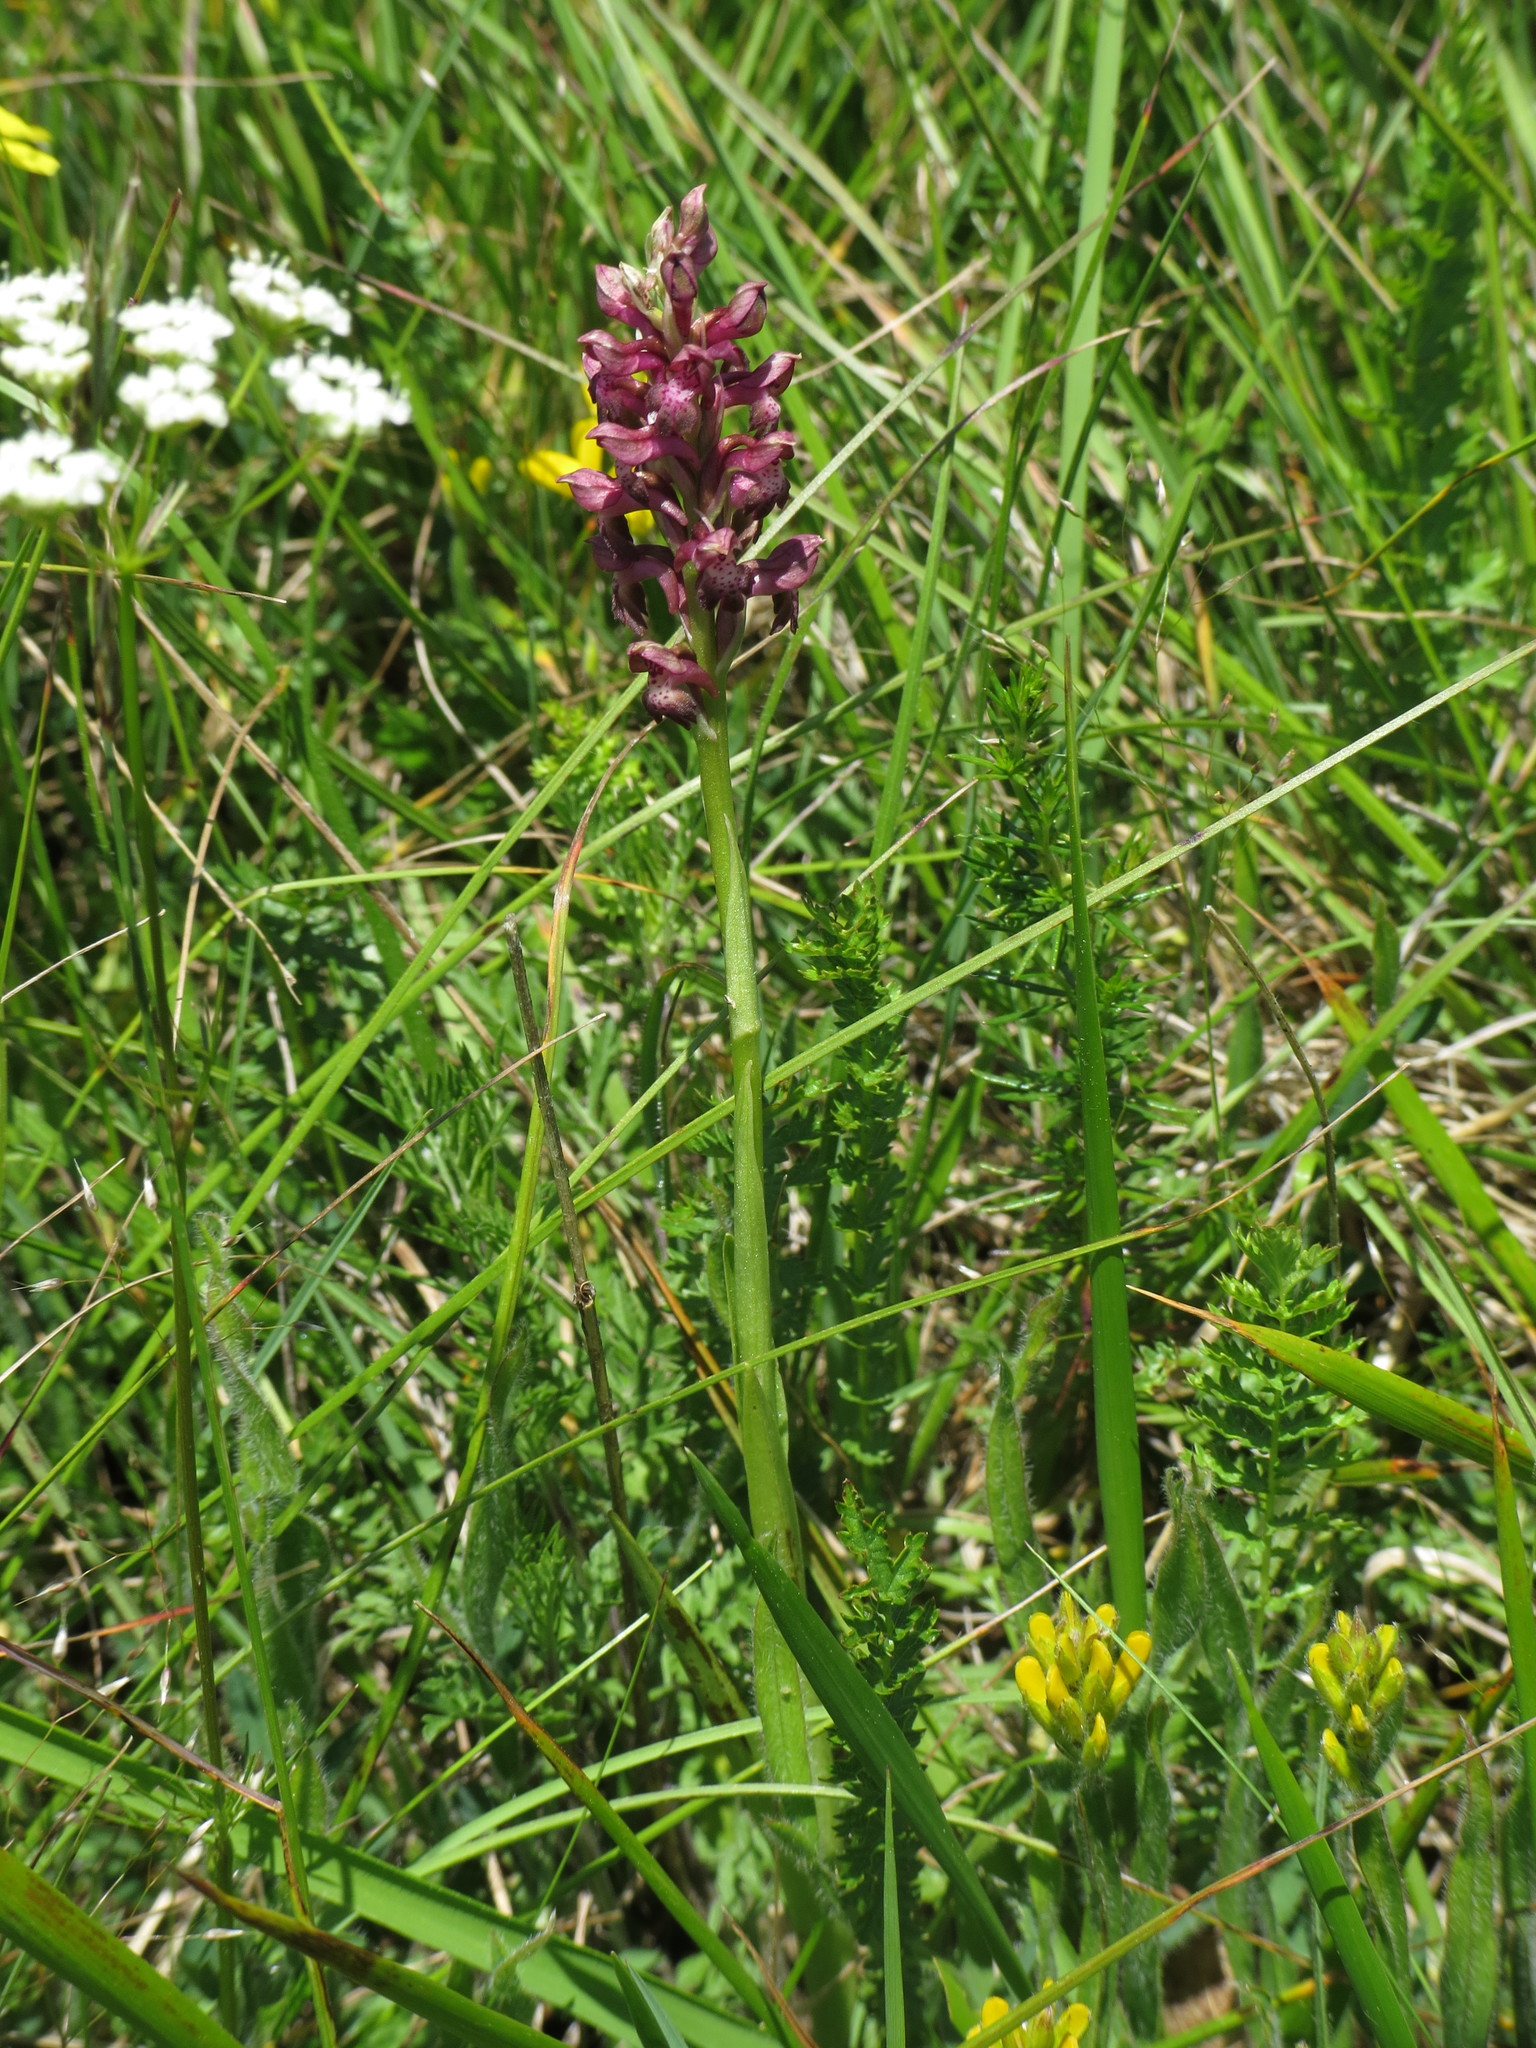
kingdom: Plantae
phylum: Tracheophyta
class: Liliopsida
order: Asparagales
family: Orchidaceae
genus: Anacamptis
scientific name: Anacamptis coriophora
